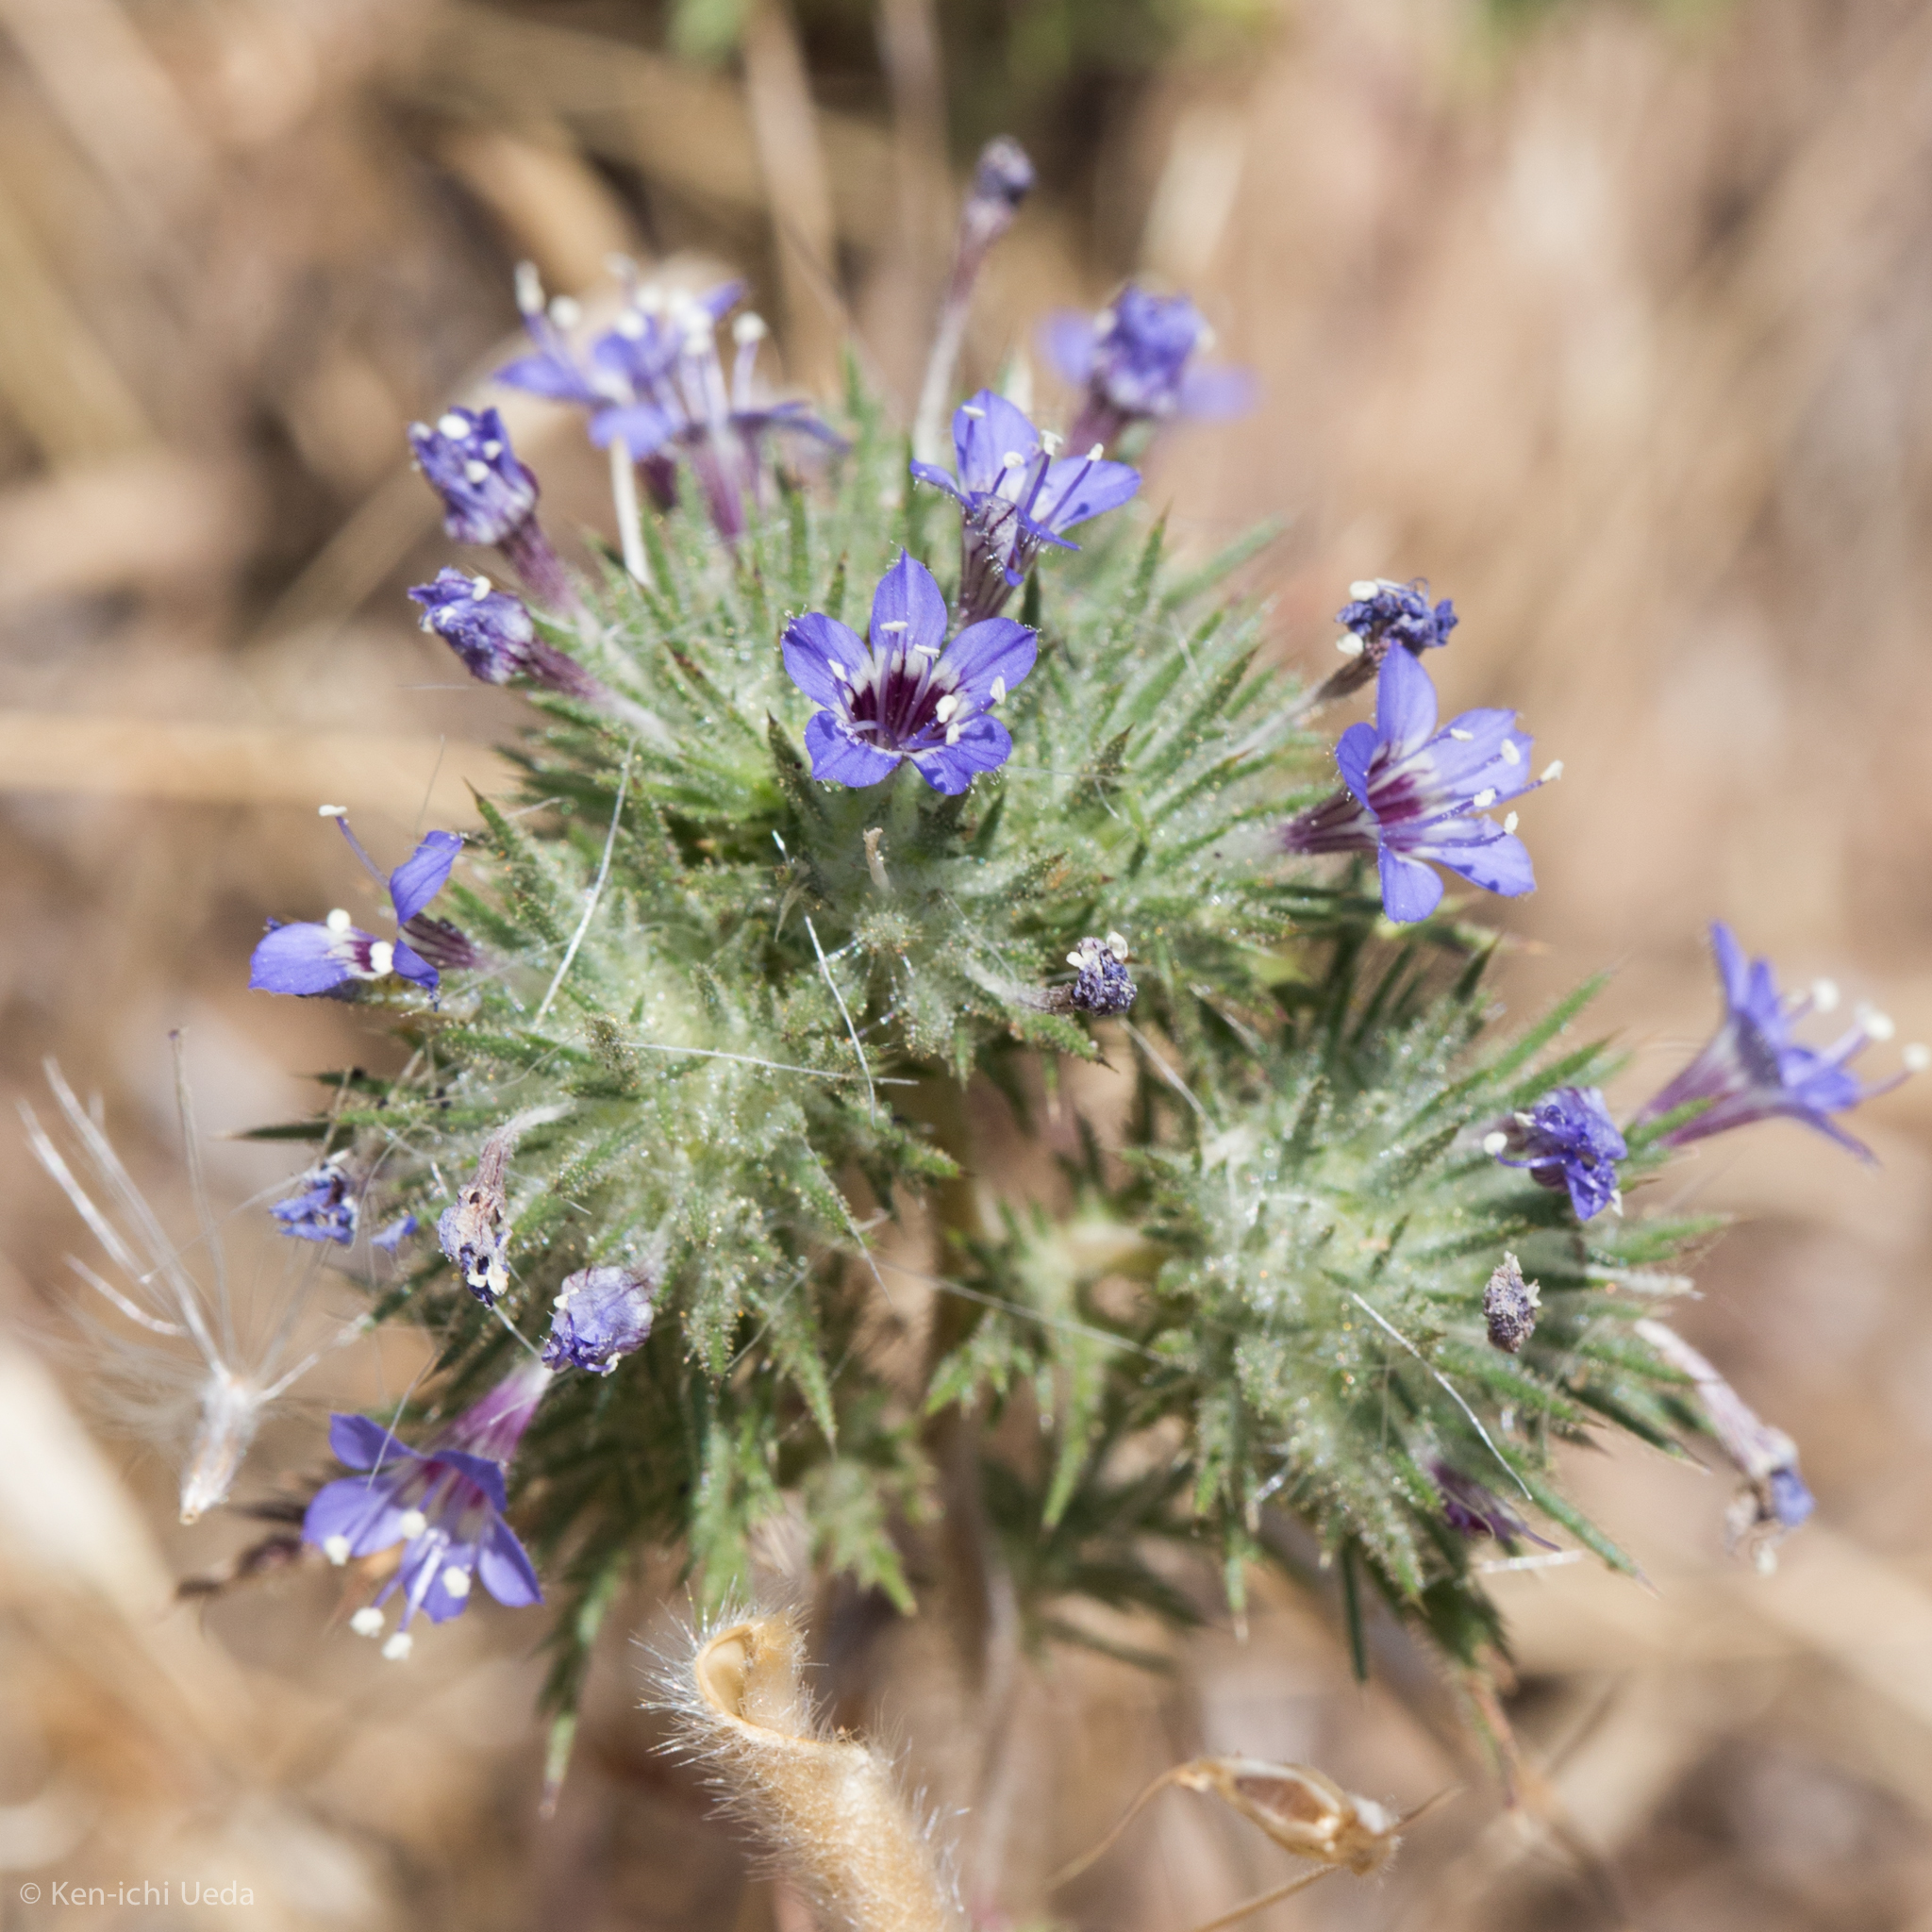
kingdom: Plantae
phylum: Tracheophyta
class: Magnoliopsida
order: Ericales
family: Polemoniaceae
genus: Navarretia
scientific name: Navarretia pubescens
